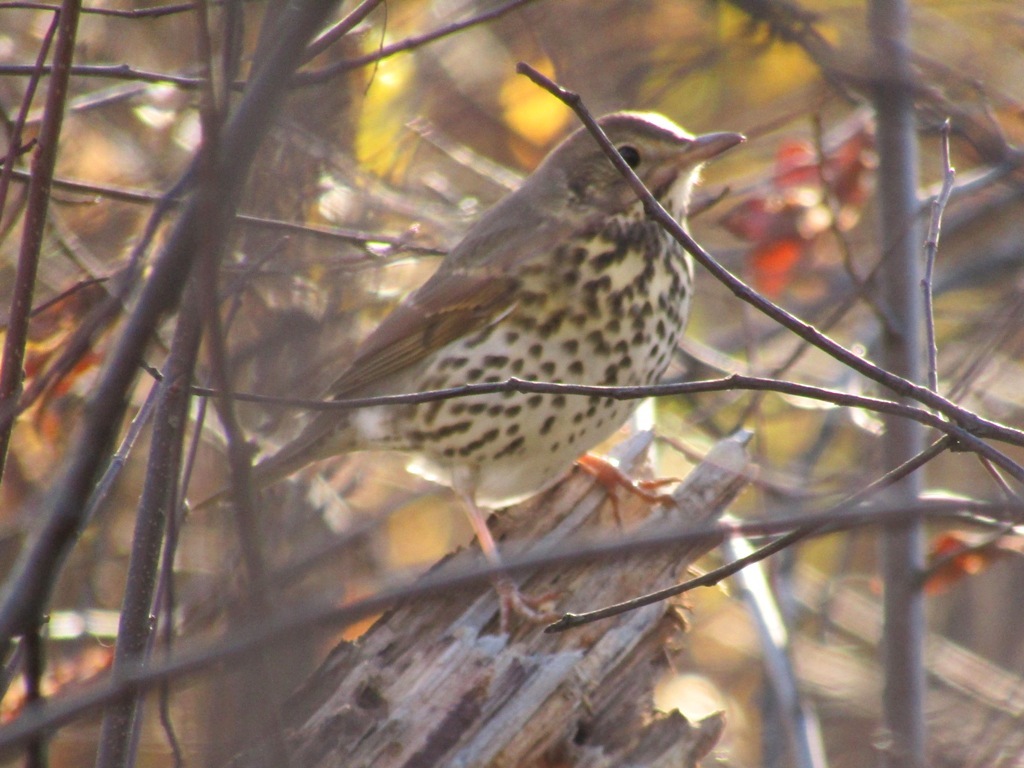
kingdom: Animalia
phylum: Chordata
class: Aves
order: Passeriformes
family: Turdidae
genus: Turdus
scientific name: Turdus philomelos
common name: Song thrush
